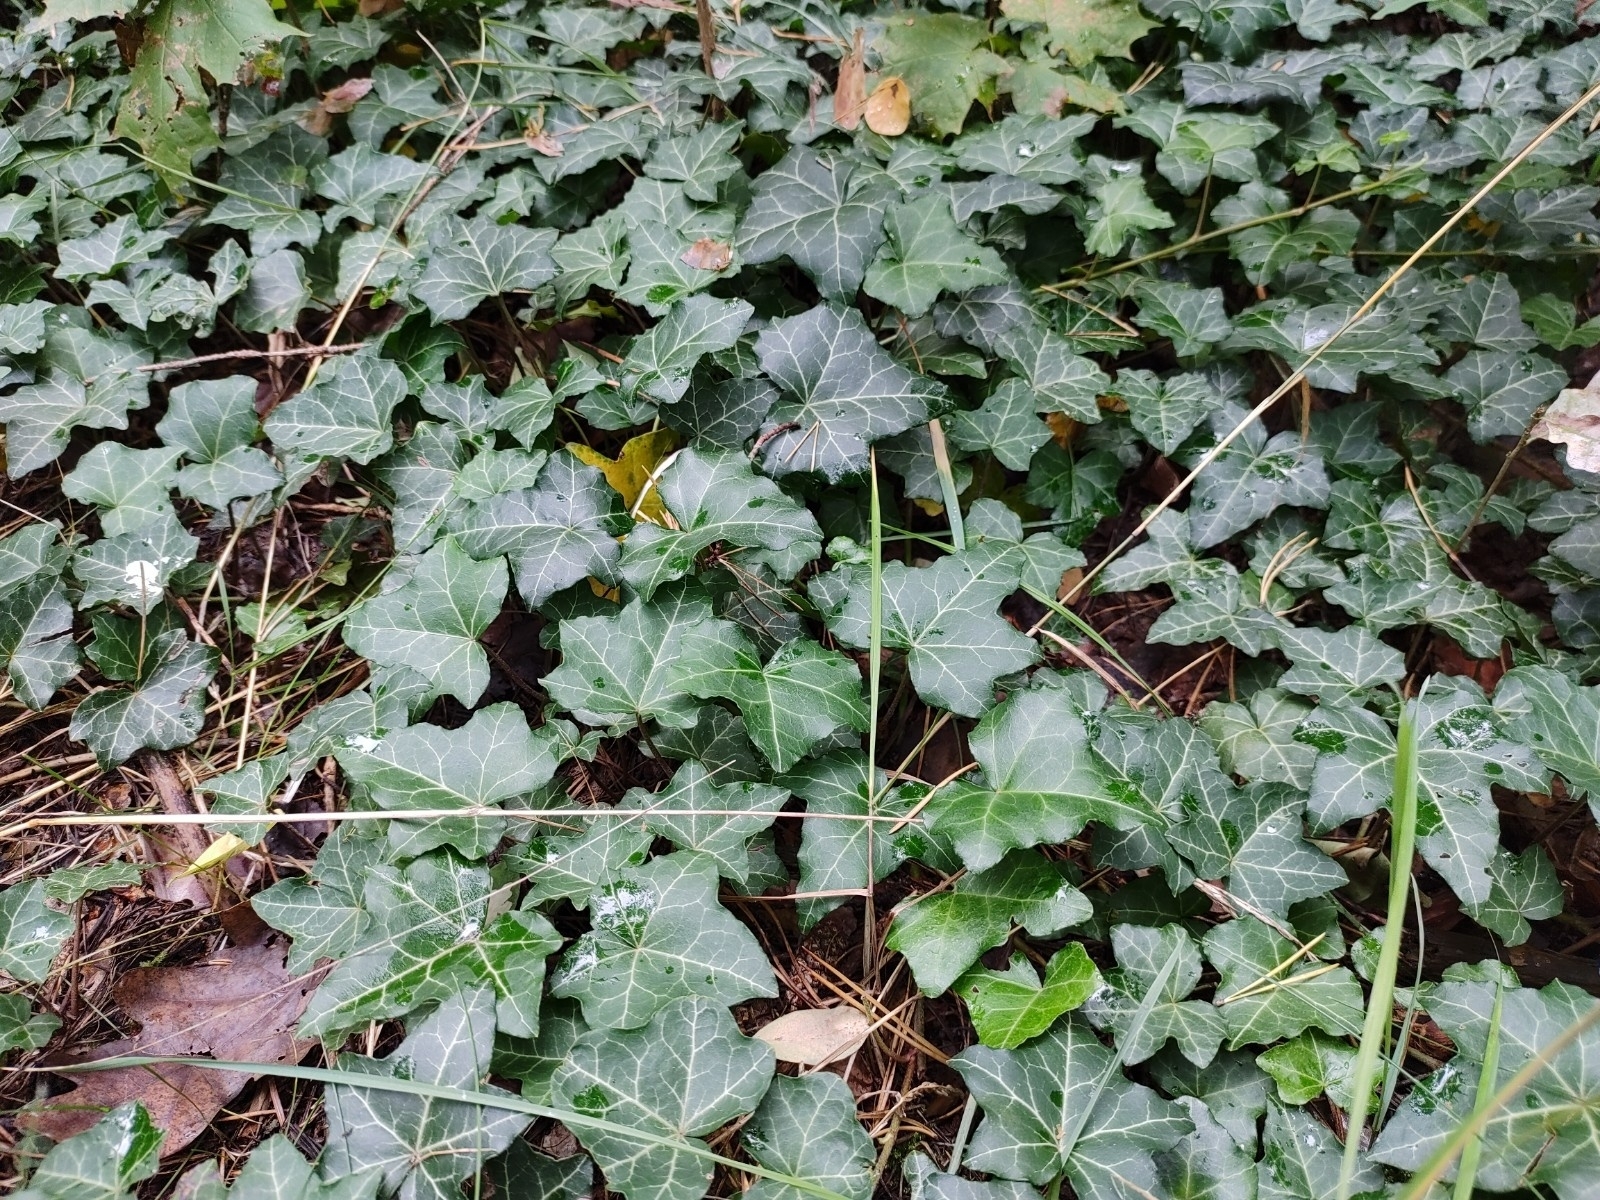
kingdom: Plantae
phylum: Tracheophyta
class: Magnoliopsida
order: Apiales
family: Araliaceae
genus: Hedera
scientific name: Hedera helix
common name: Ivy
